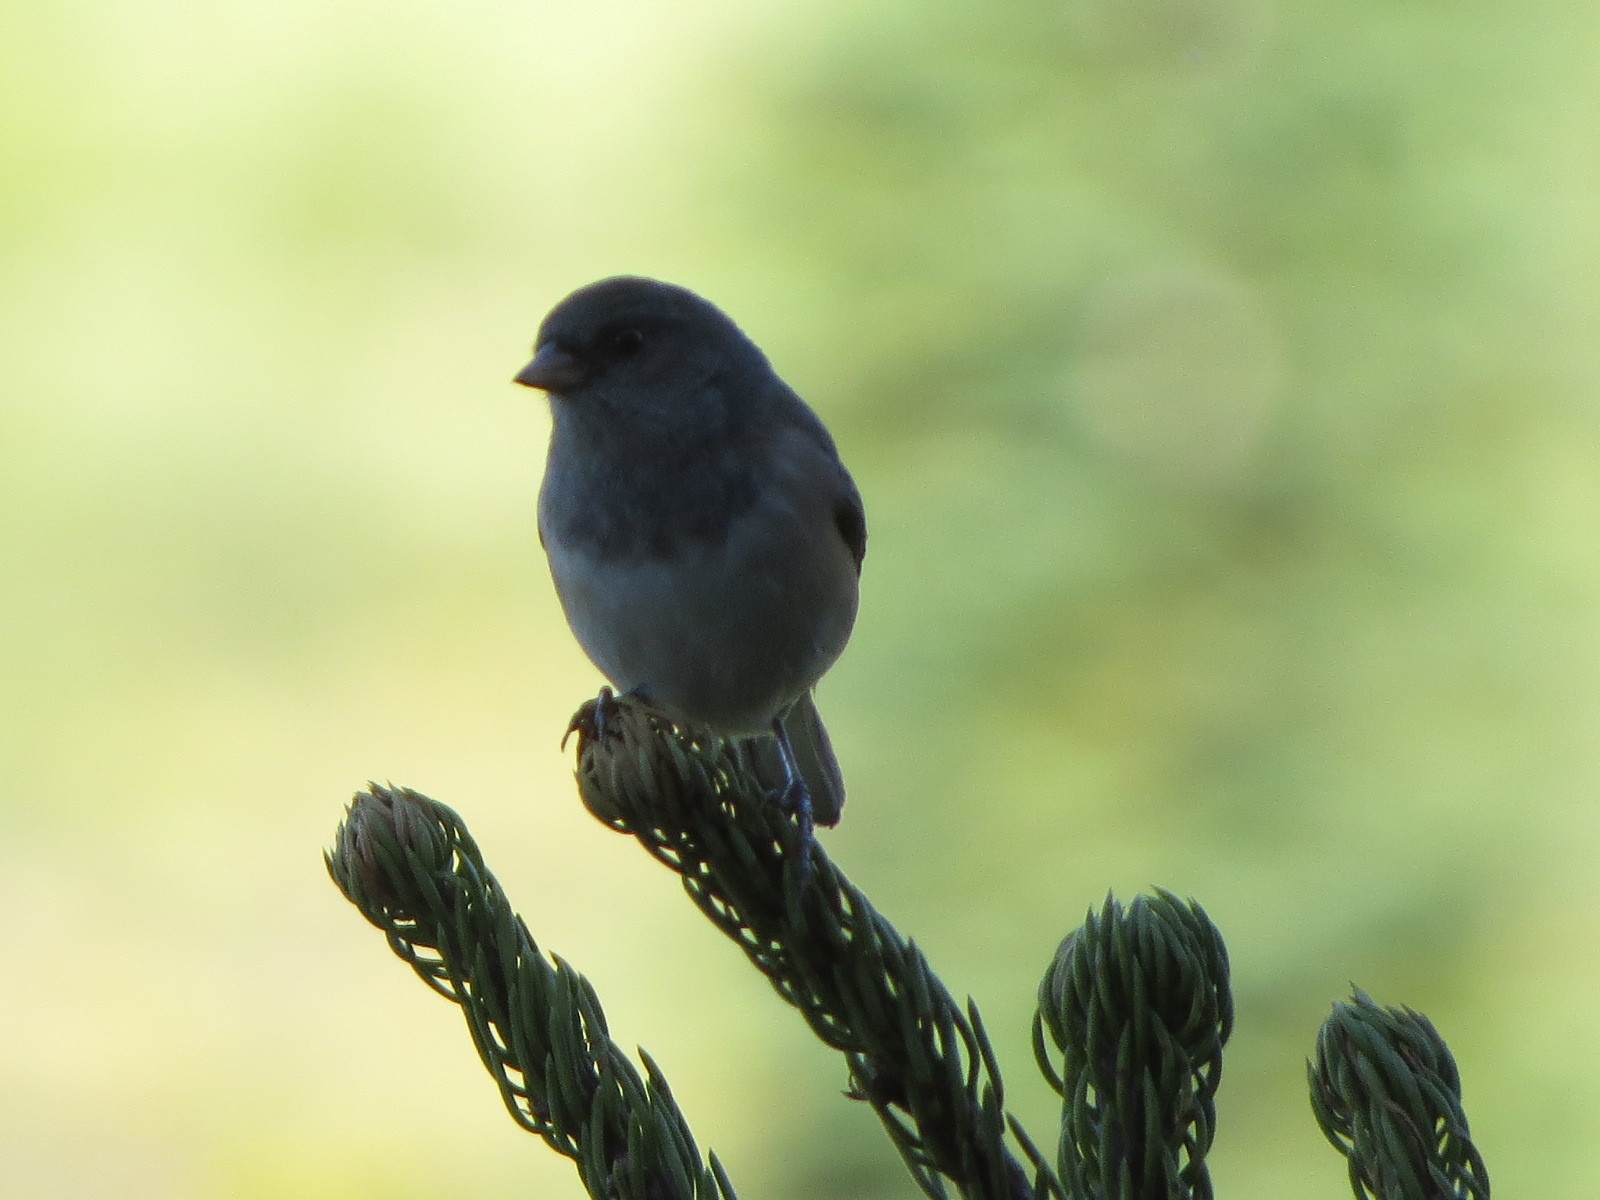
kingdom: Animalia
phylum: Chordata
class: Aves
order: Passeriformes
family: Passerellidae
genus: Junco
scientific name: Junco hyemalis
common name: Dark-eyed junco
